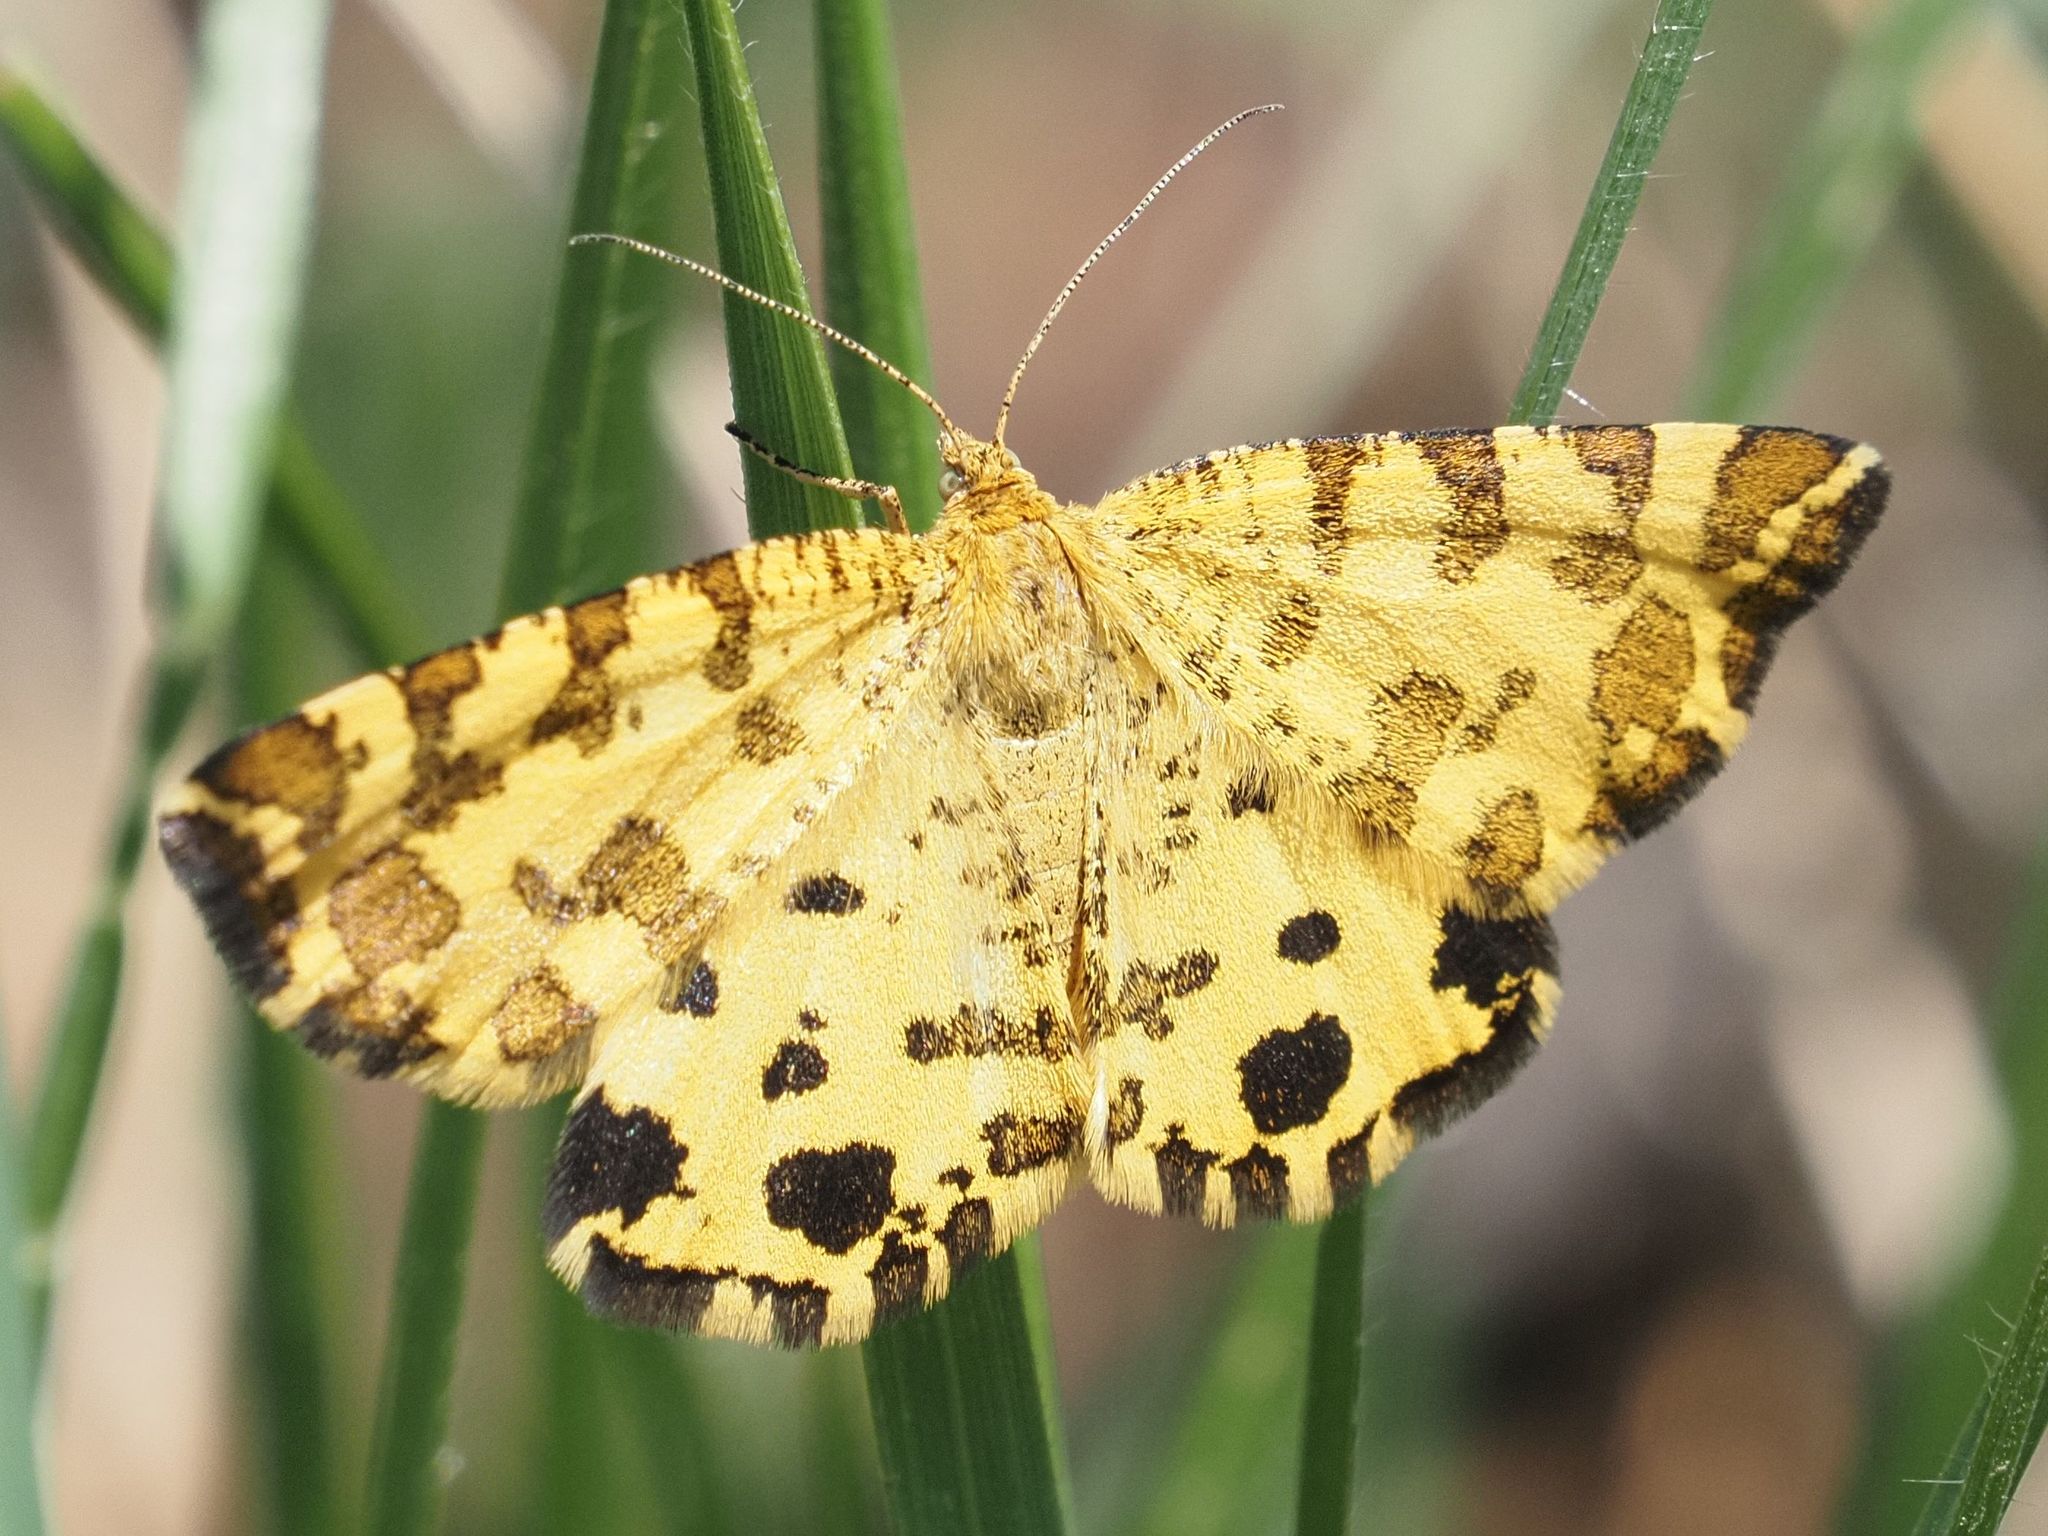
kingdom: Animalia
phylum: Arthropoda
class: Insecta
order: Lepidoptera
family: Geometridae
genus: Pseudopanthera
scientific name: Pseudopanthera macularia
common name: Speckled yellow
